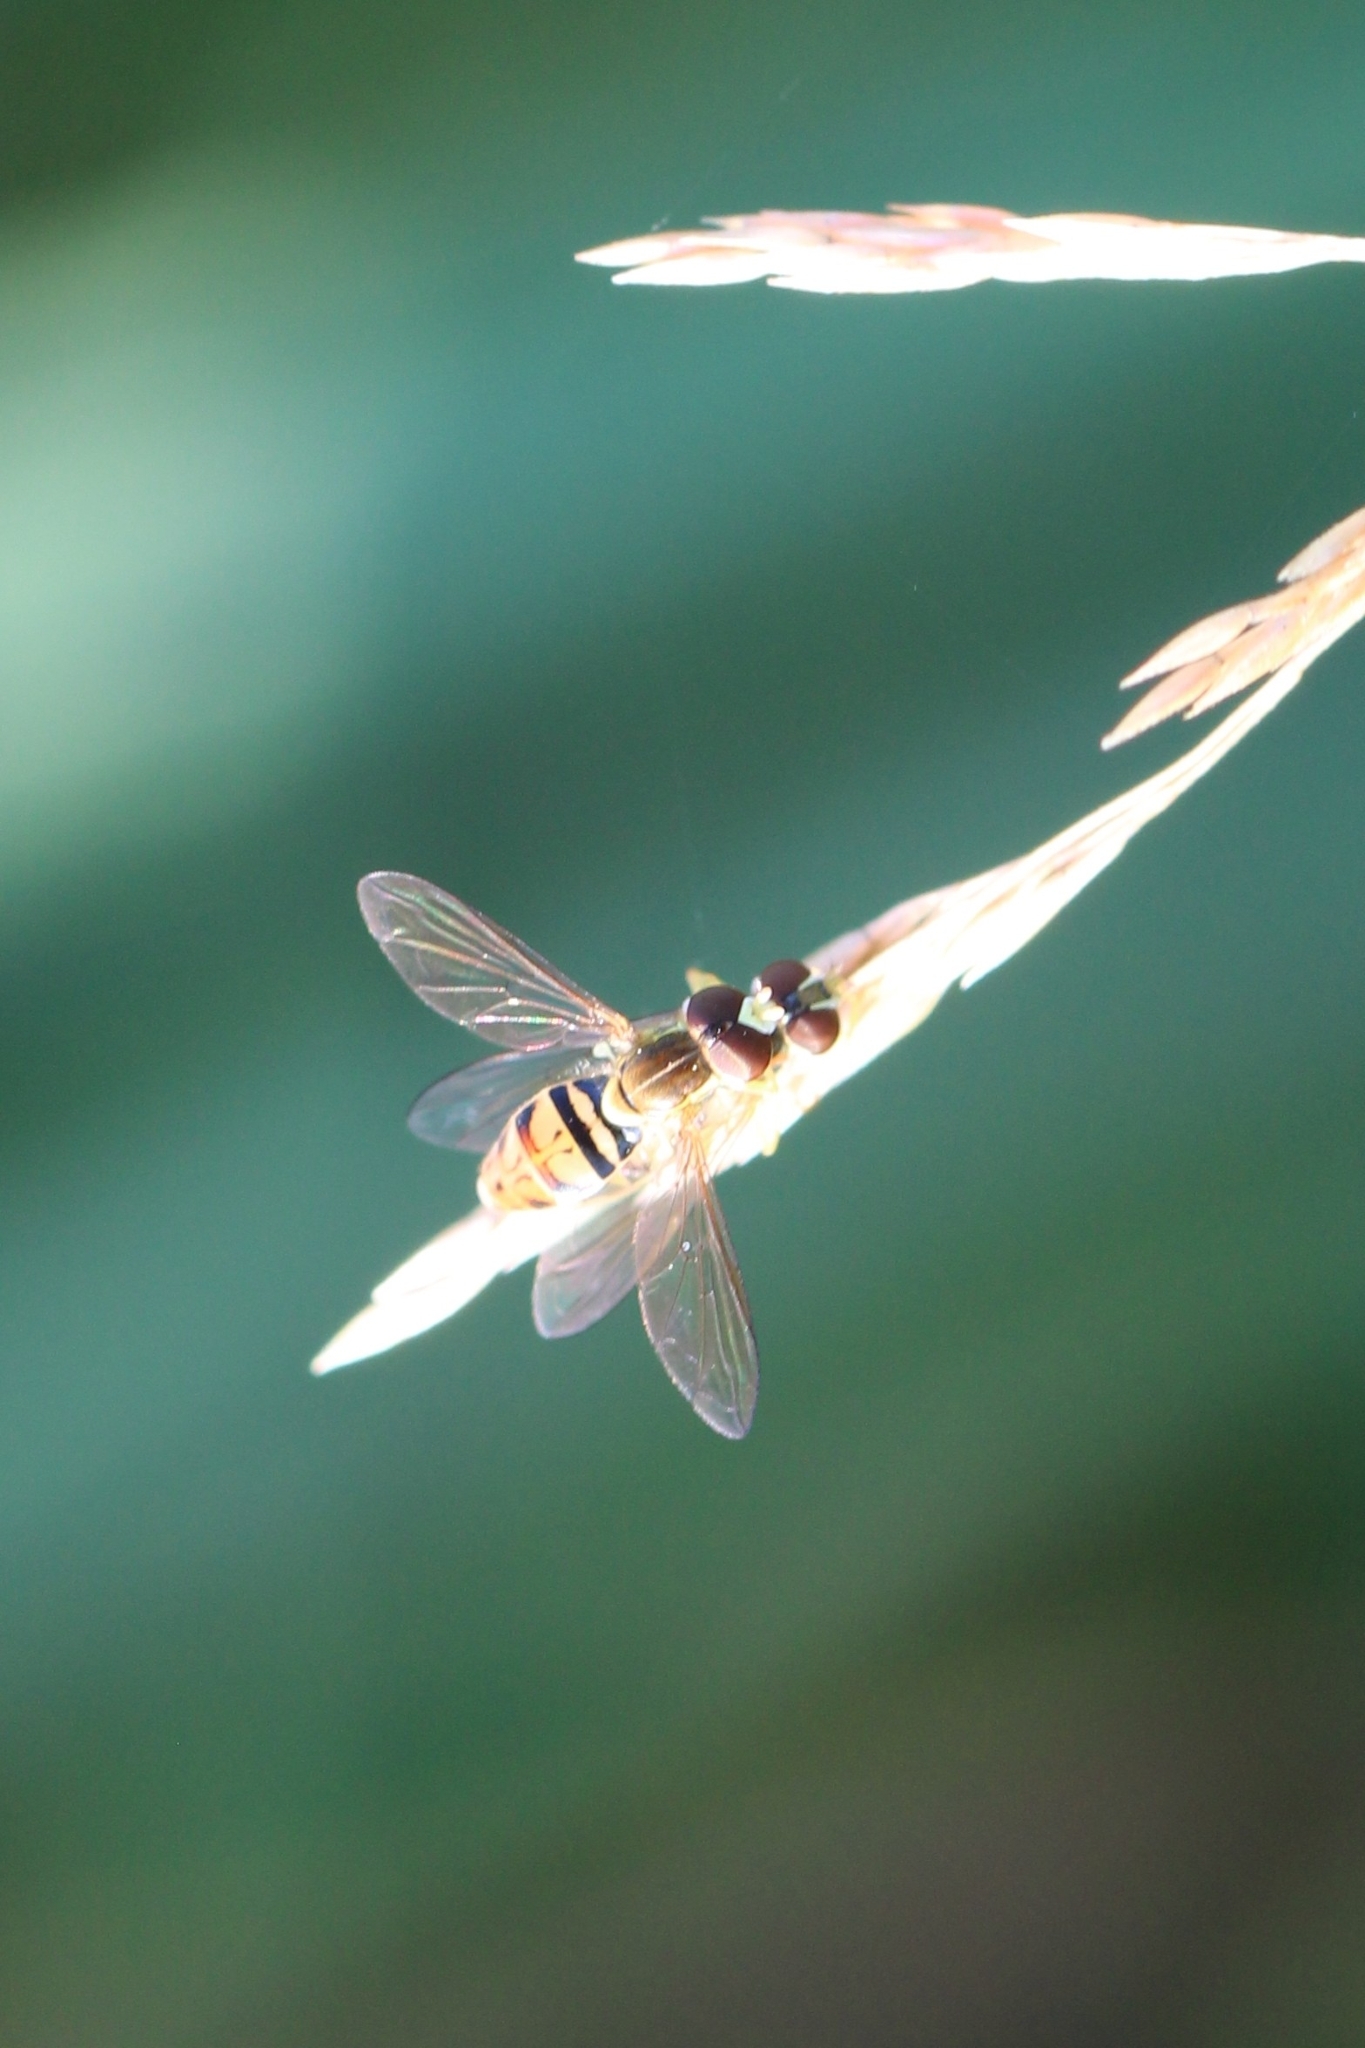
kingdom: Animalia
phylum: Arthropoda
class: Insecta
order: Diptera
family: Syrphidae
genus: Toxomerus
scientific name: Toxomerus marginatus
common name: Syrphid fly
